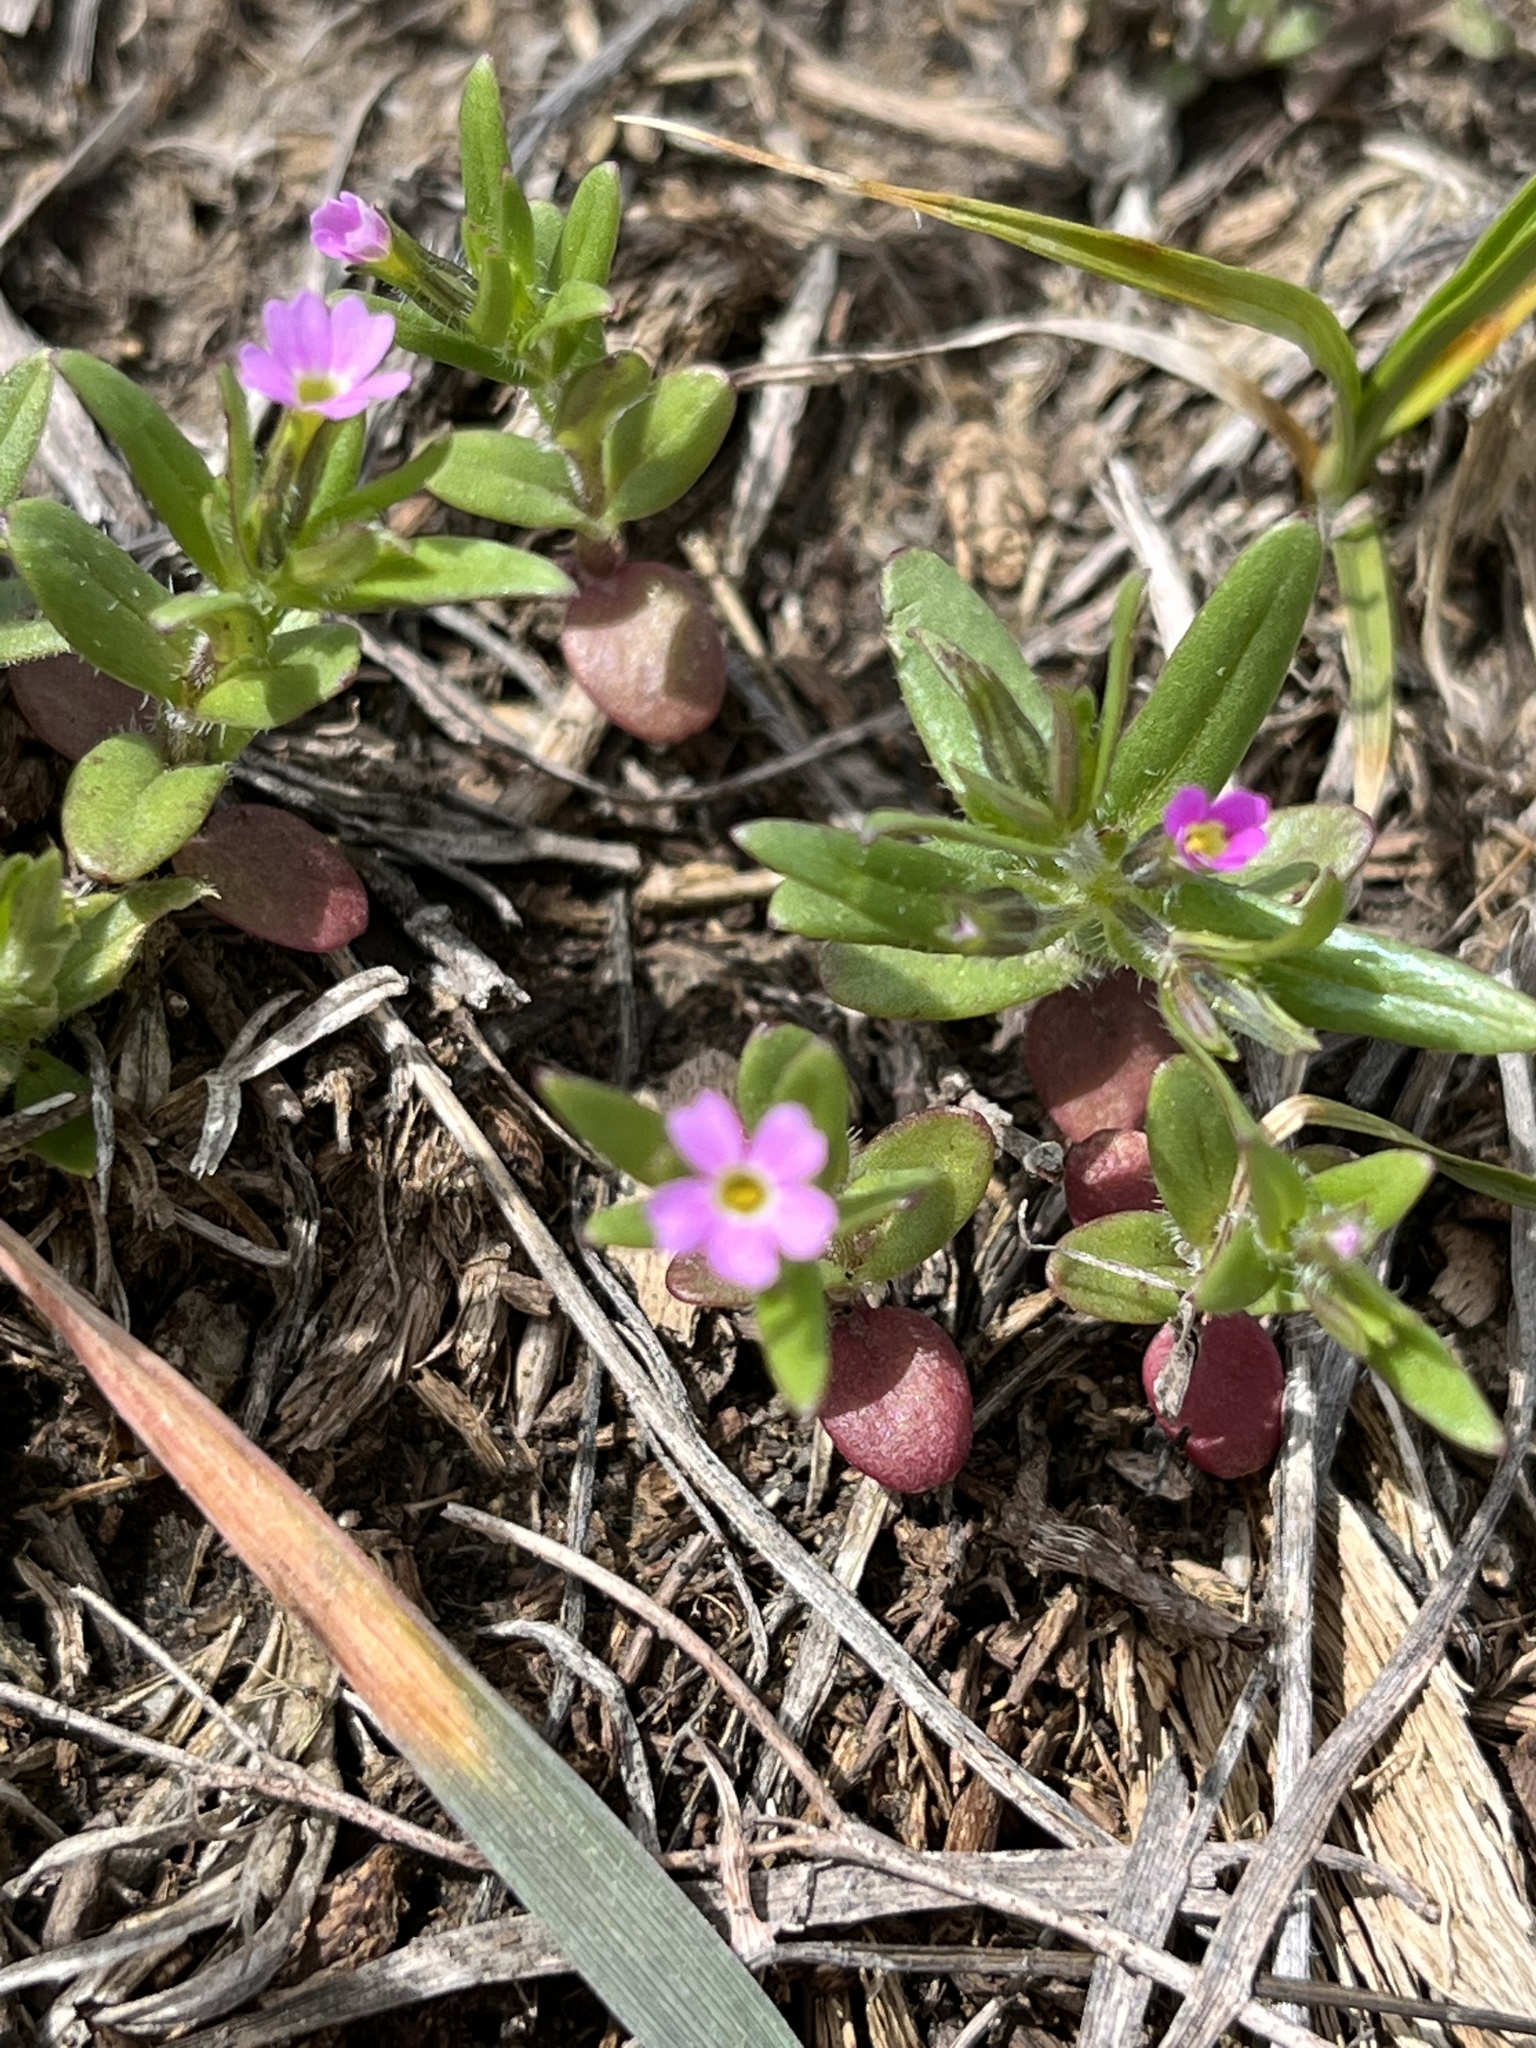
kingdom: Plantae
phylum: Tracheophyta
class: Magnoliopsida
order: Ericales
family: Polemoniaceae
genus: Phlox
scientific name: Phlox gracilis
